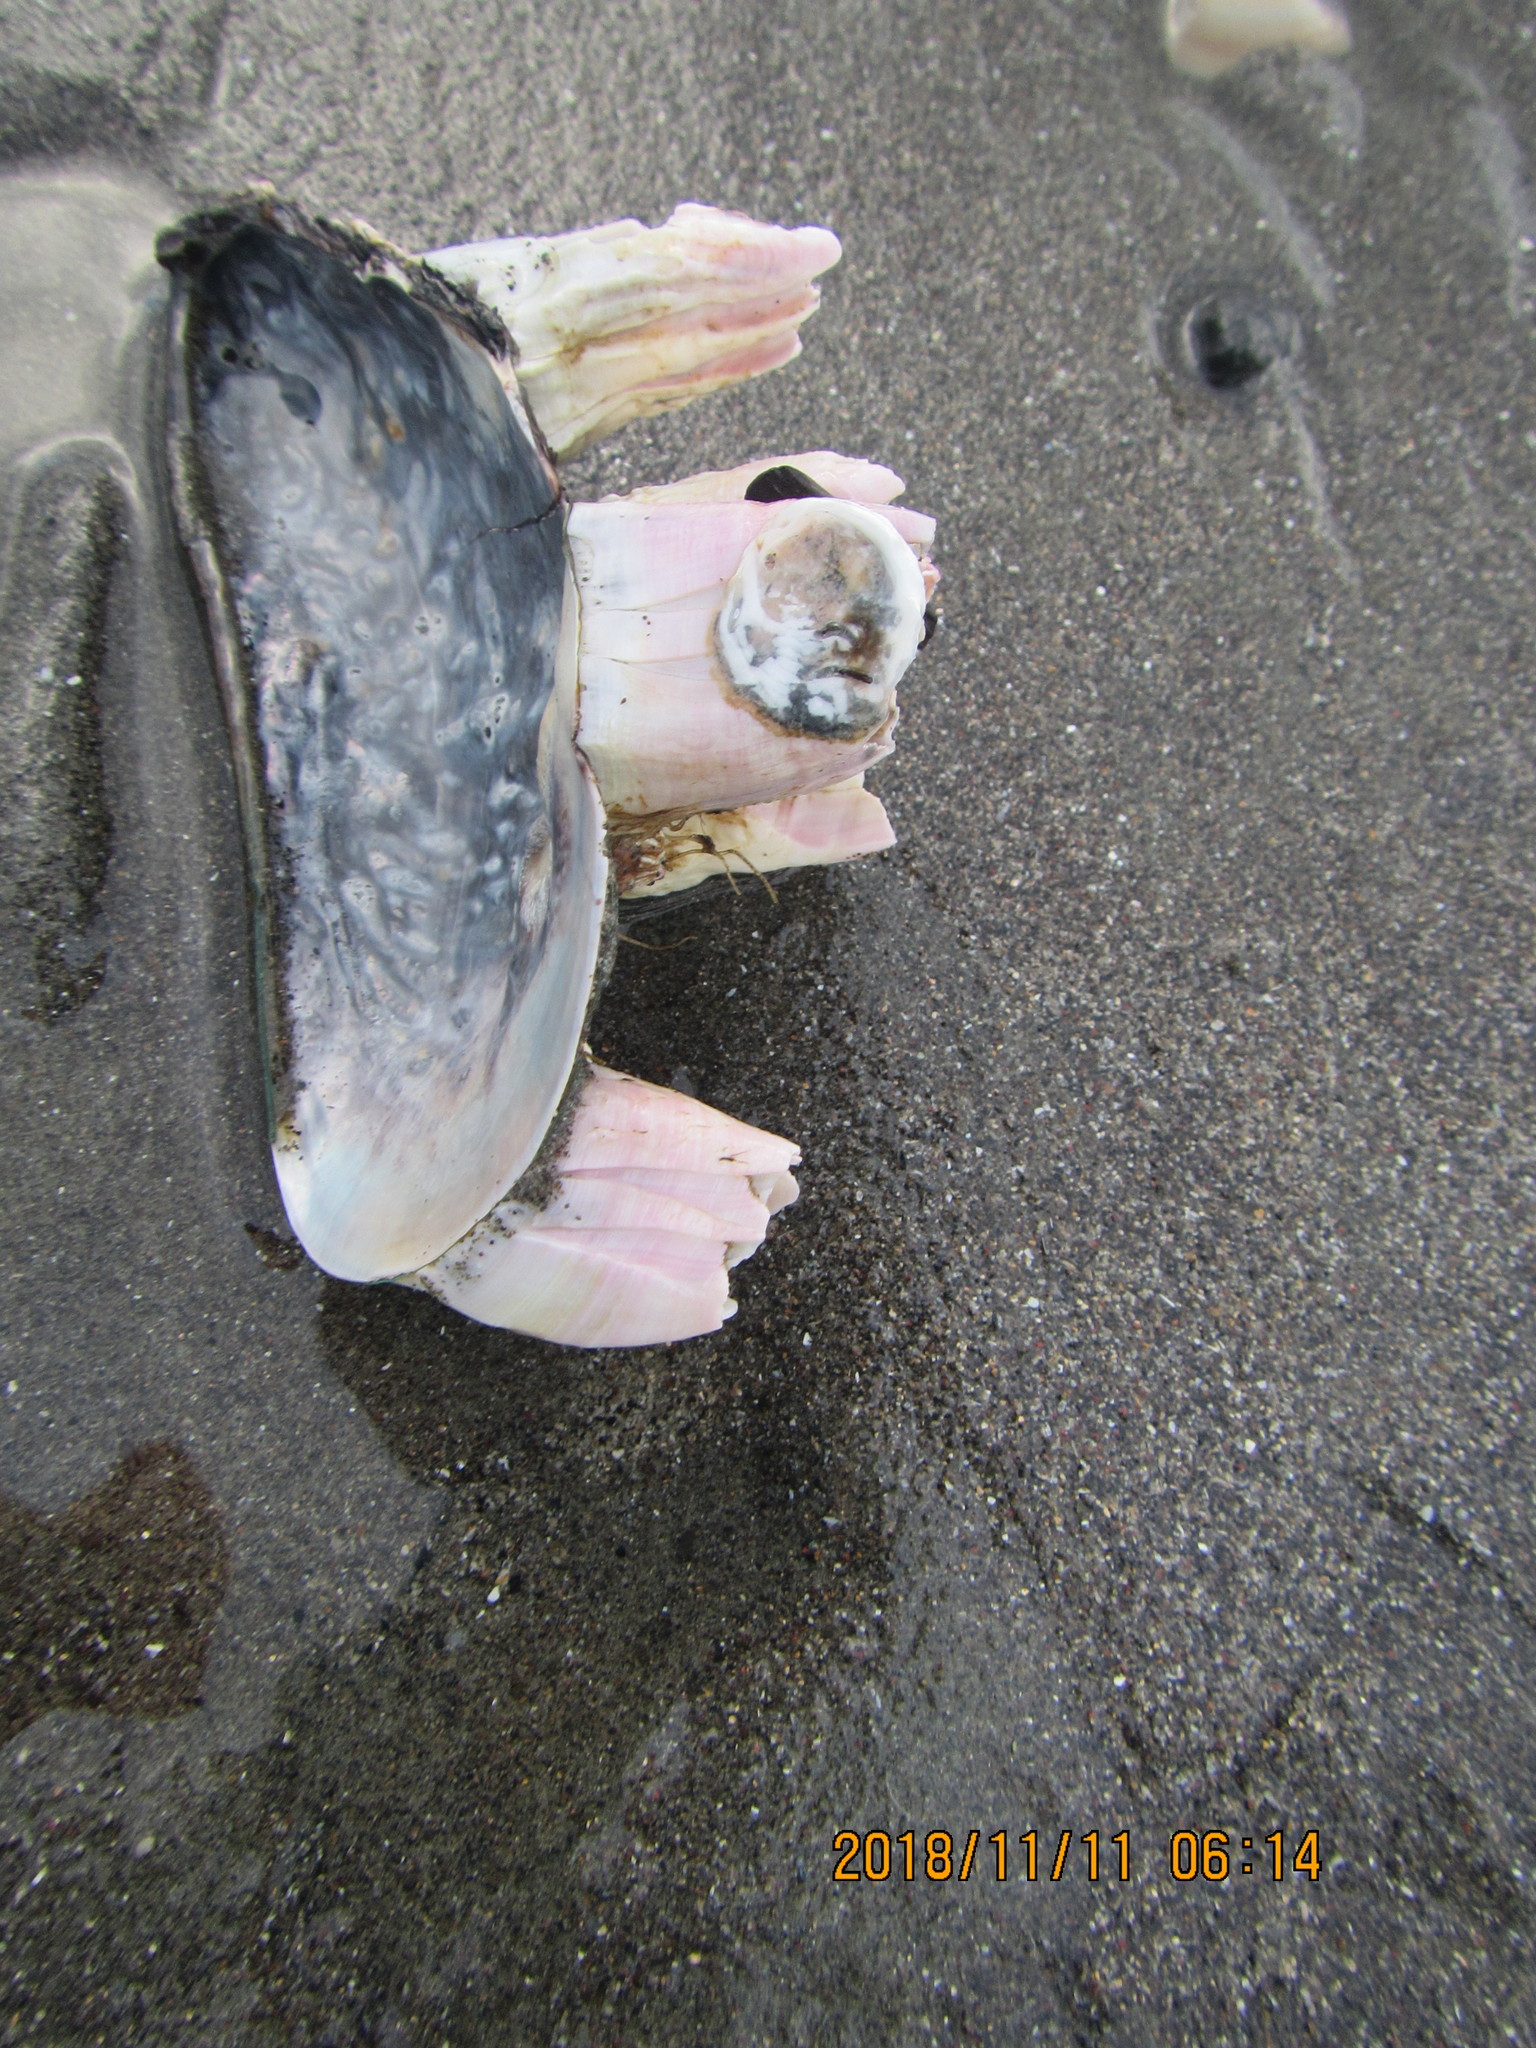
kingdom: Animalia
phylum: Mollusca
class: Bivalvia
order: Mytilida
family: Mytilidae
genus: Perna
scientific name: Perna canaliculus
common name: New zealand greenshelltm
